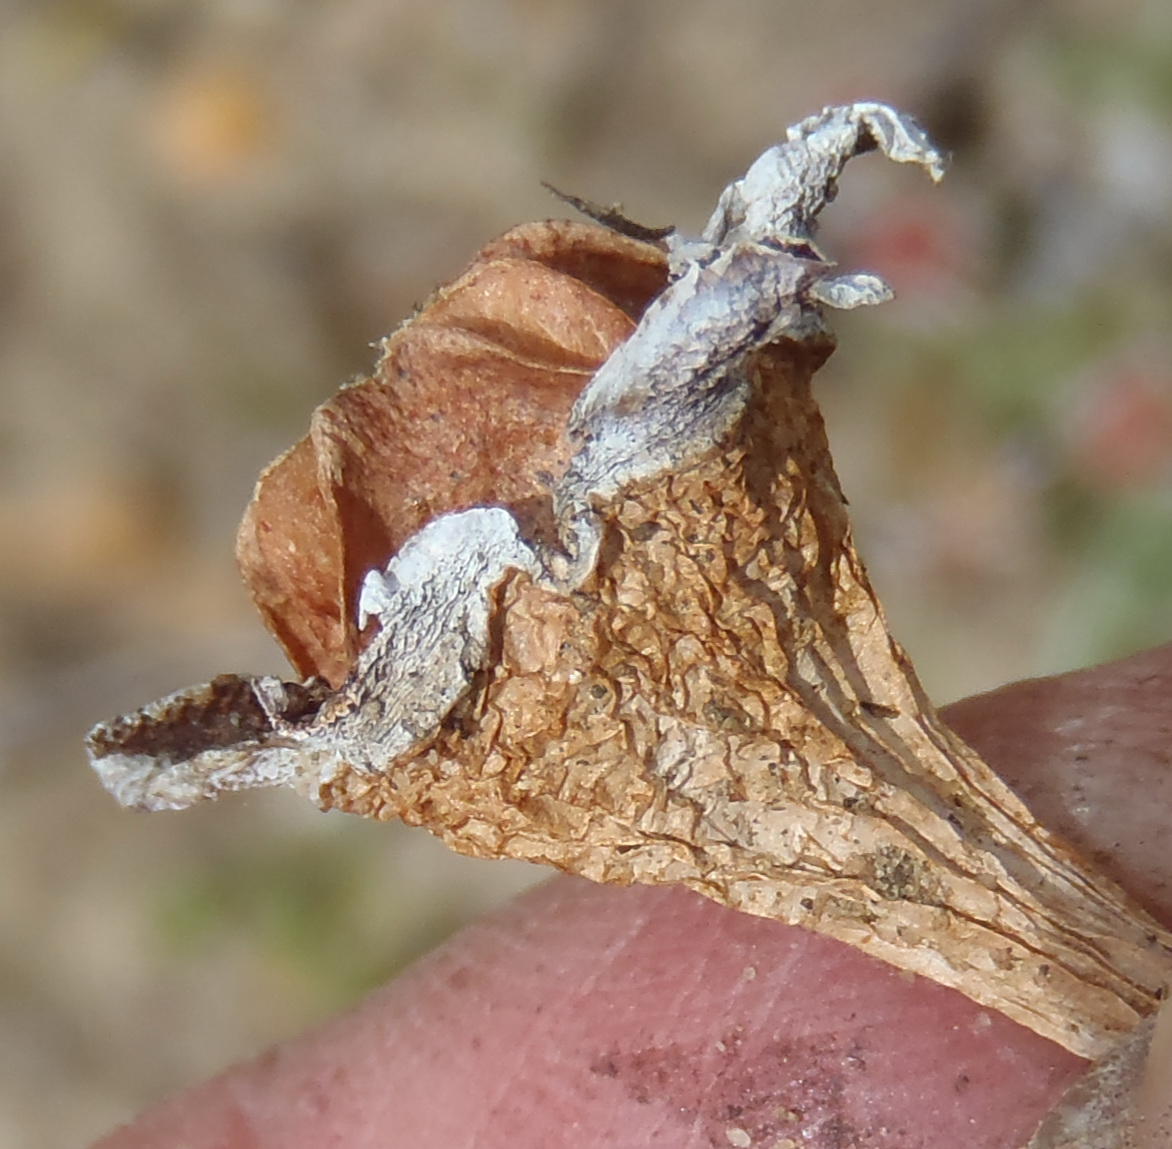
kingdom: Plantae
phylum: Tracheophyta
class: Magnoliopsida
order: Caryophyllales
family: Aizoaceae
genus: Acrodon
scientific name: Acrodon bellidiflorus
